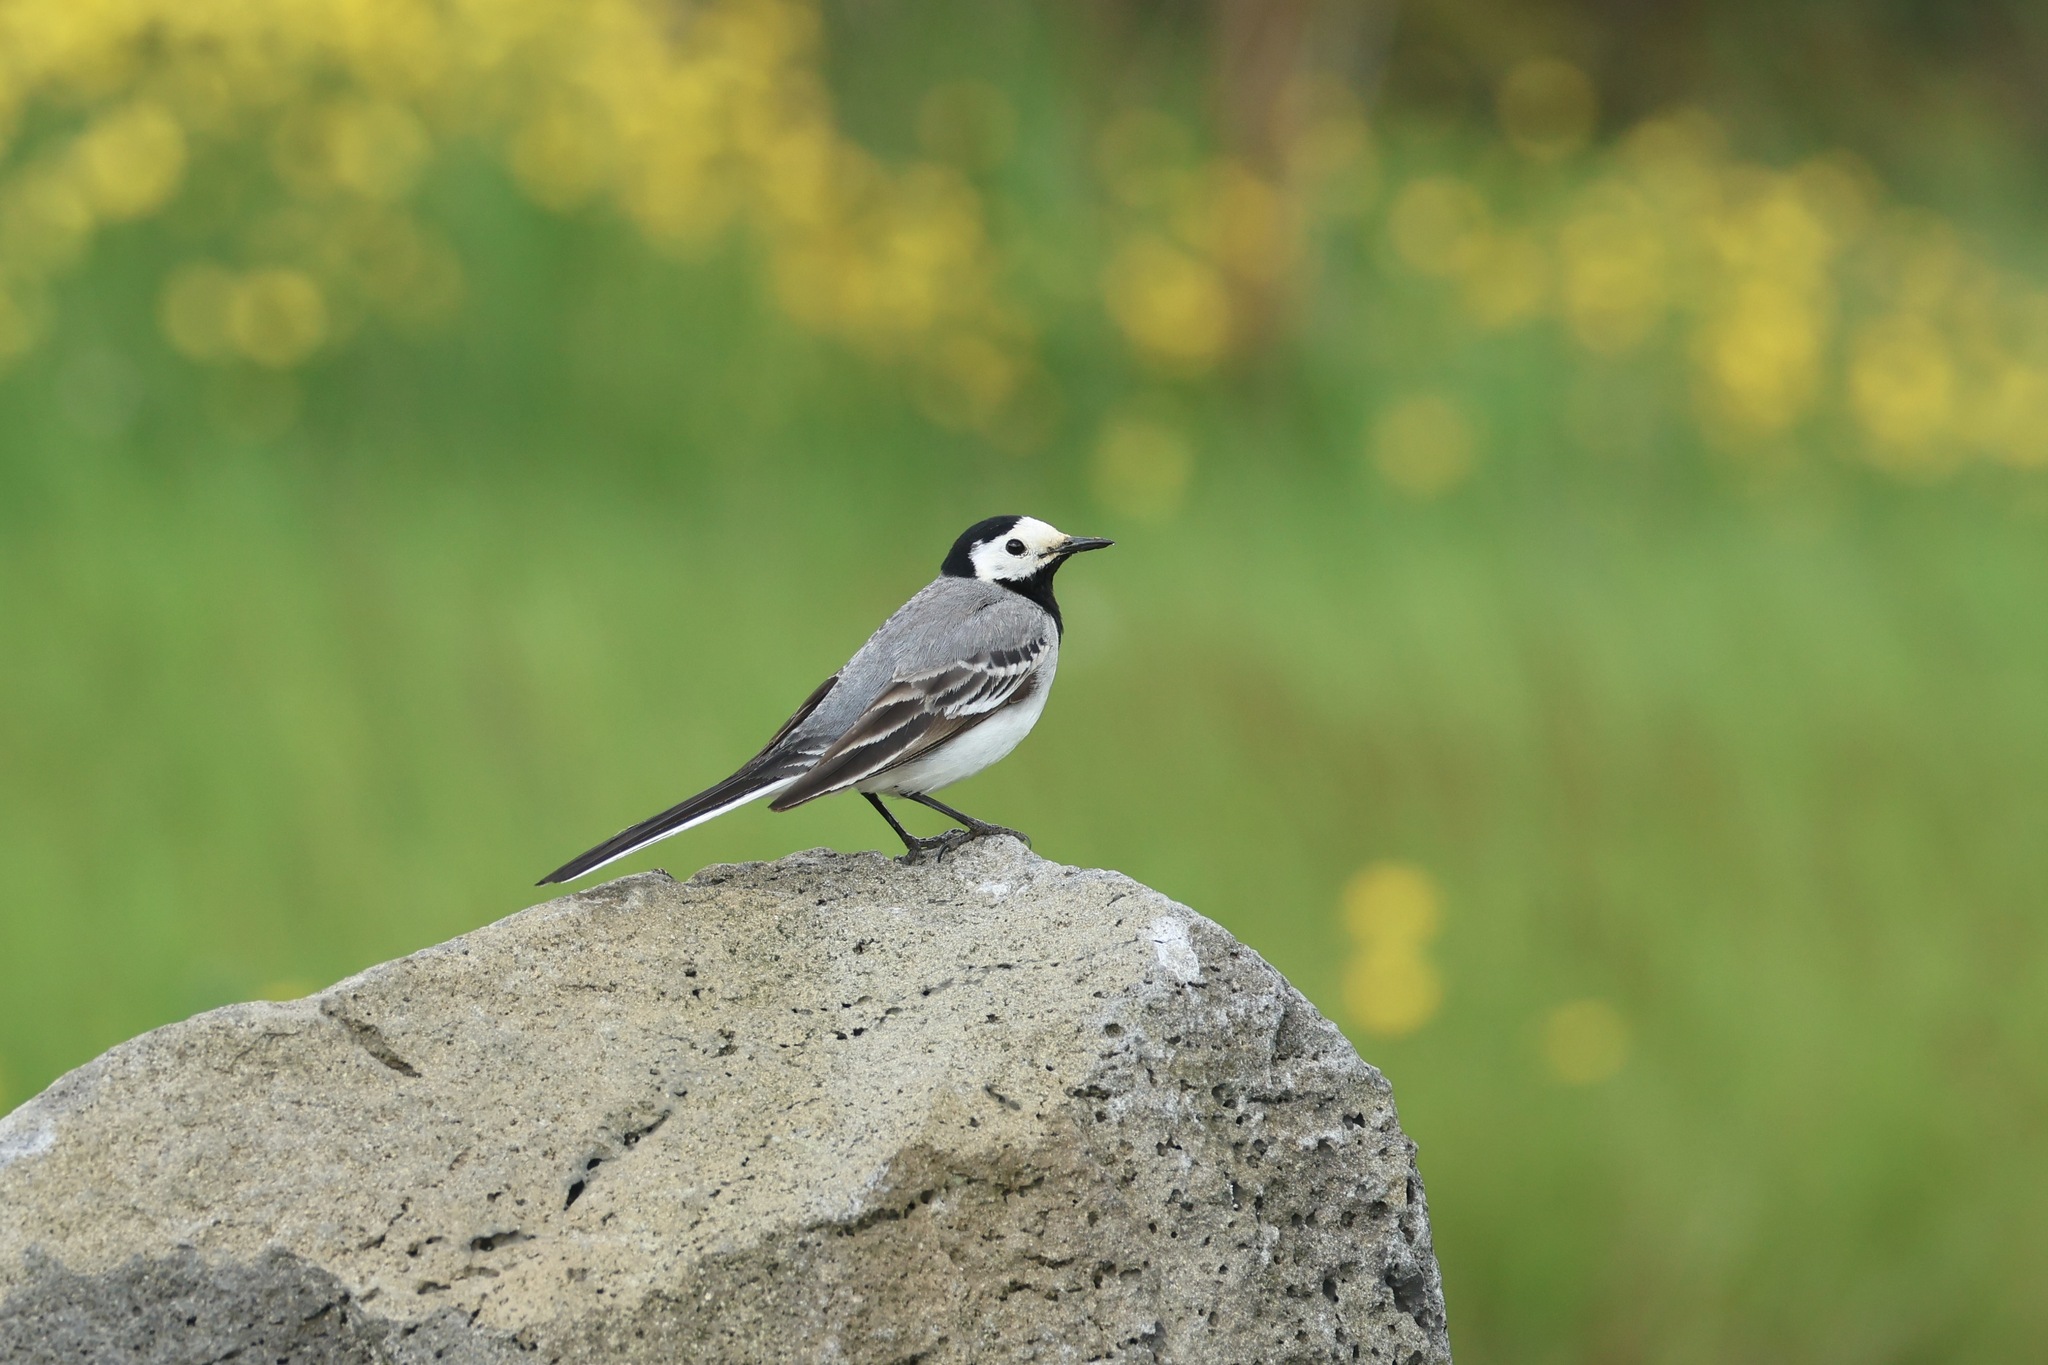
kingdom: Animalia
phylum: Chordata
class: Aves
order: Passeriformes
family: Motacillidae
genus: Motacilla
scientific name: Motacilla alba
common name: White wagtail
